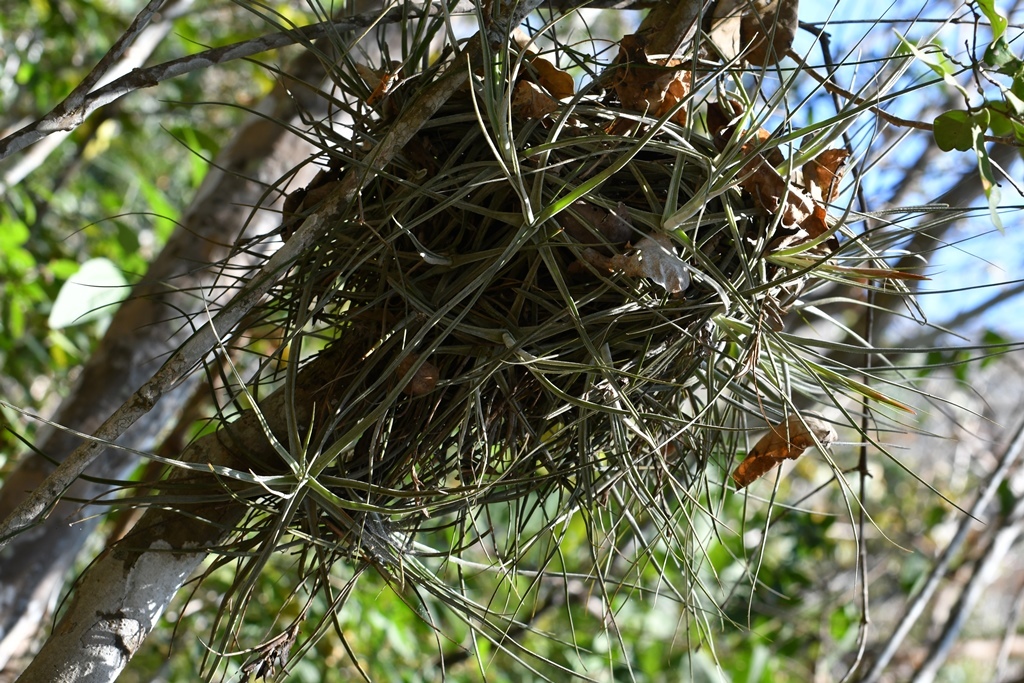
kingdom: Plantae
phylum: Tracheophyta
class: Liliopsida
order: Poales
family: Bromeliaceae
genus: Tillandsia
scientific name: Tillandsia schiedeana
